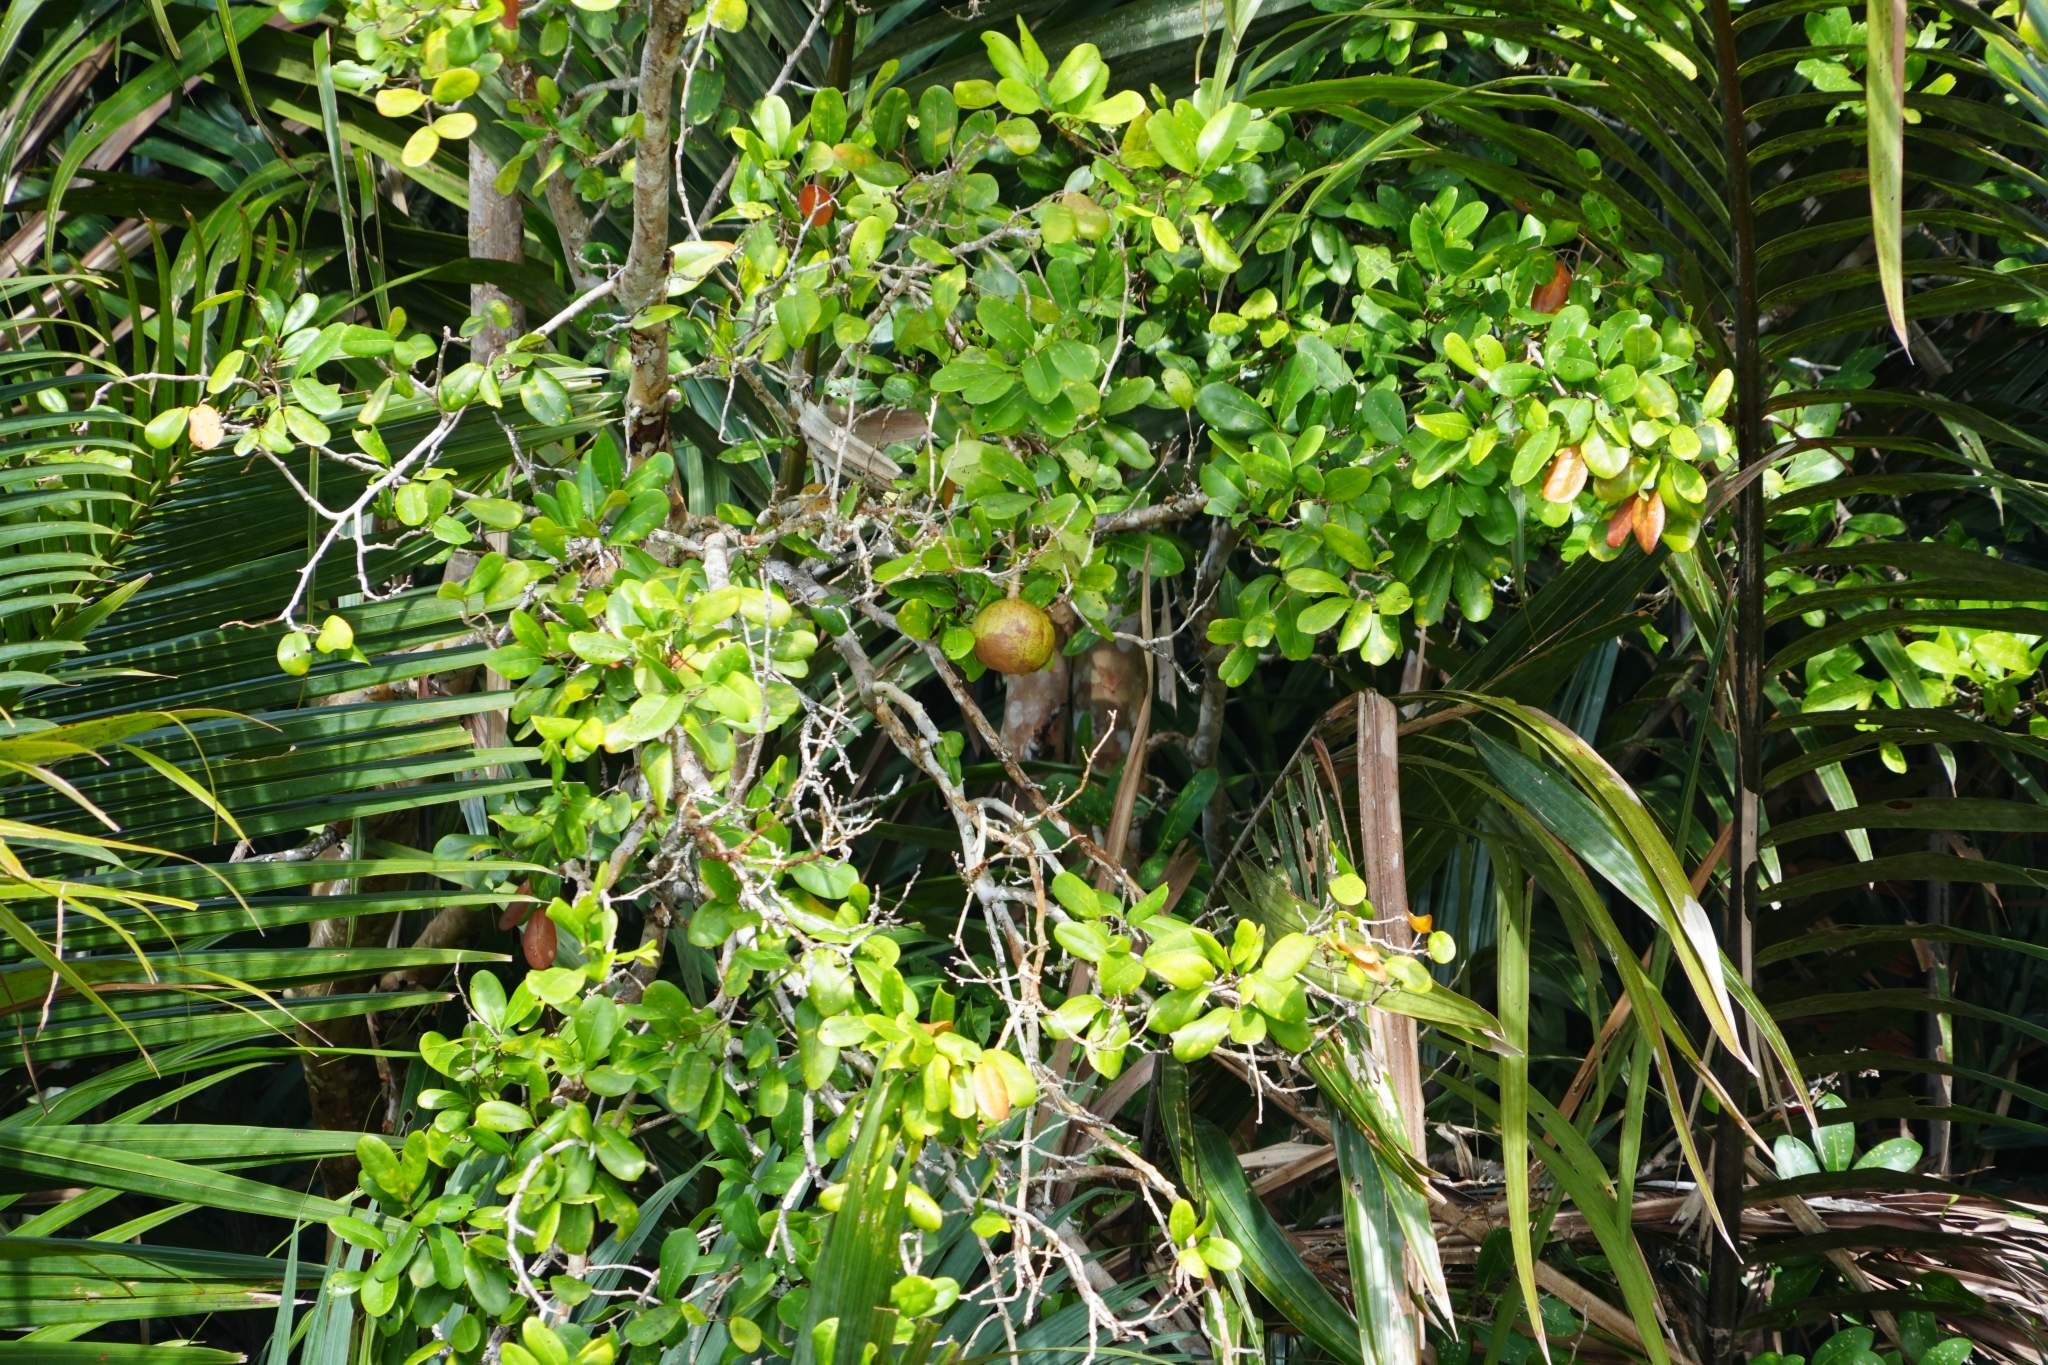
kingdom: Plantae
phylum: Tracheophyta
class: Magnoliopsida
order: Sapindales
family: Meliaceae
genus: Xylocarpus
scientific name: Xylocarpus granatum
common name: Apple mangrove
